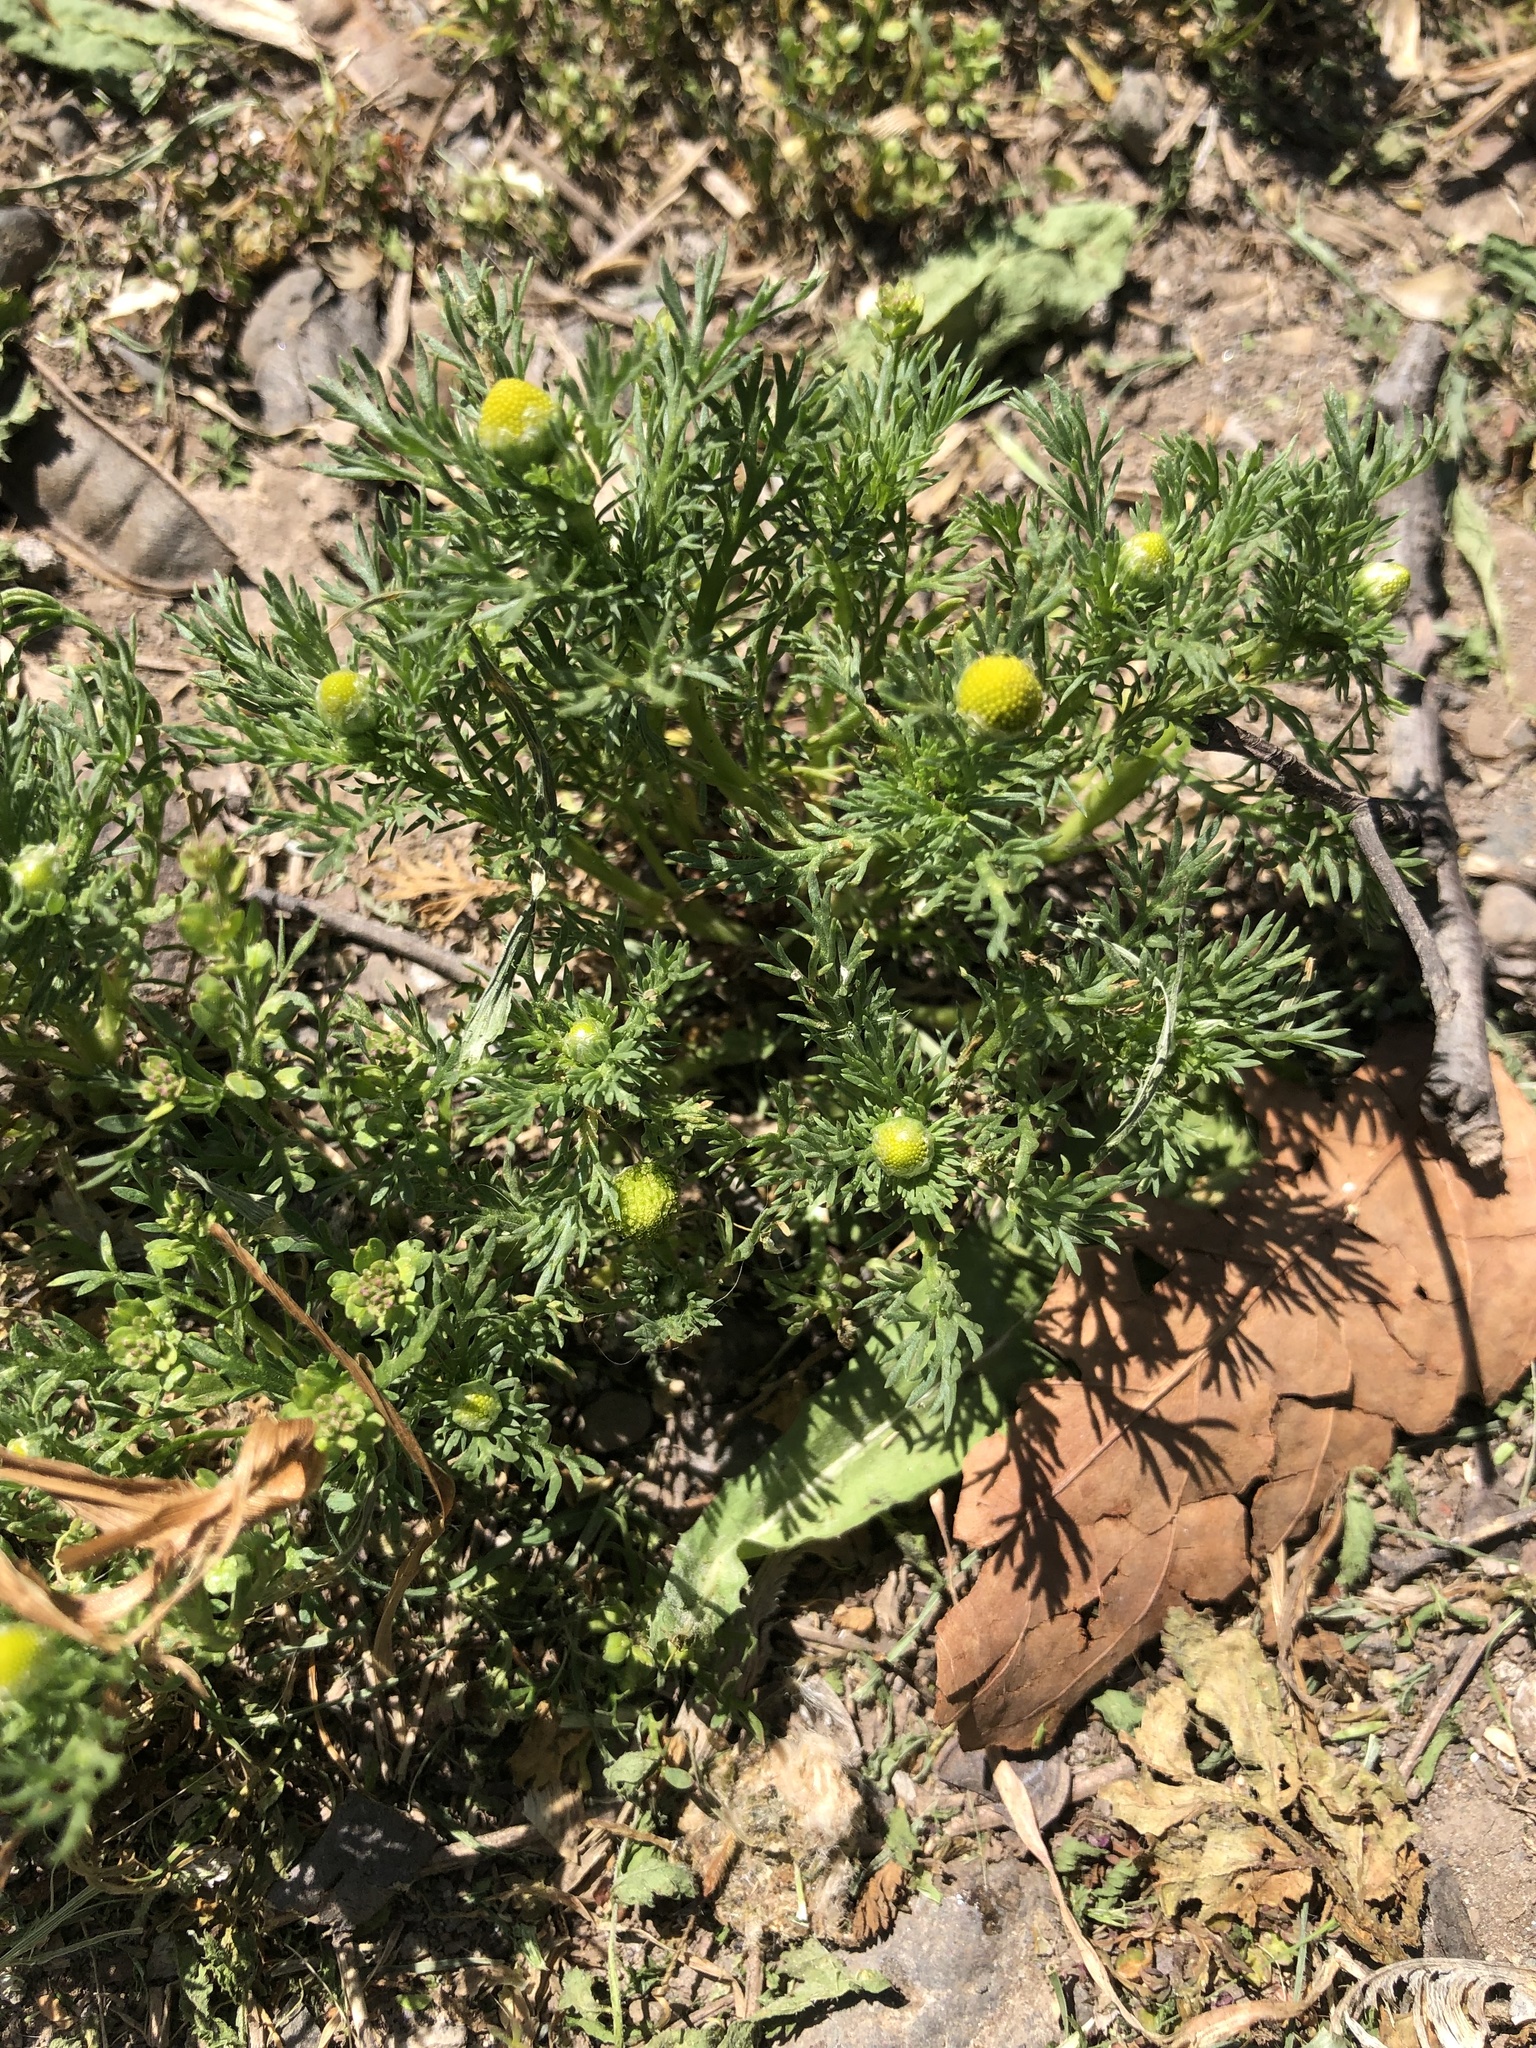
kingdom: Plantae
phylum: Tracheophyta
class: Magnoliopsida
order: Asterales
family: Asteraceae
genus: Matricaria
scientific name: Matricaria discoidea
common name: Disc mayweed
